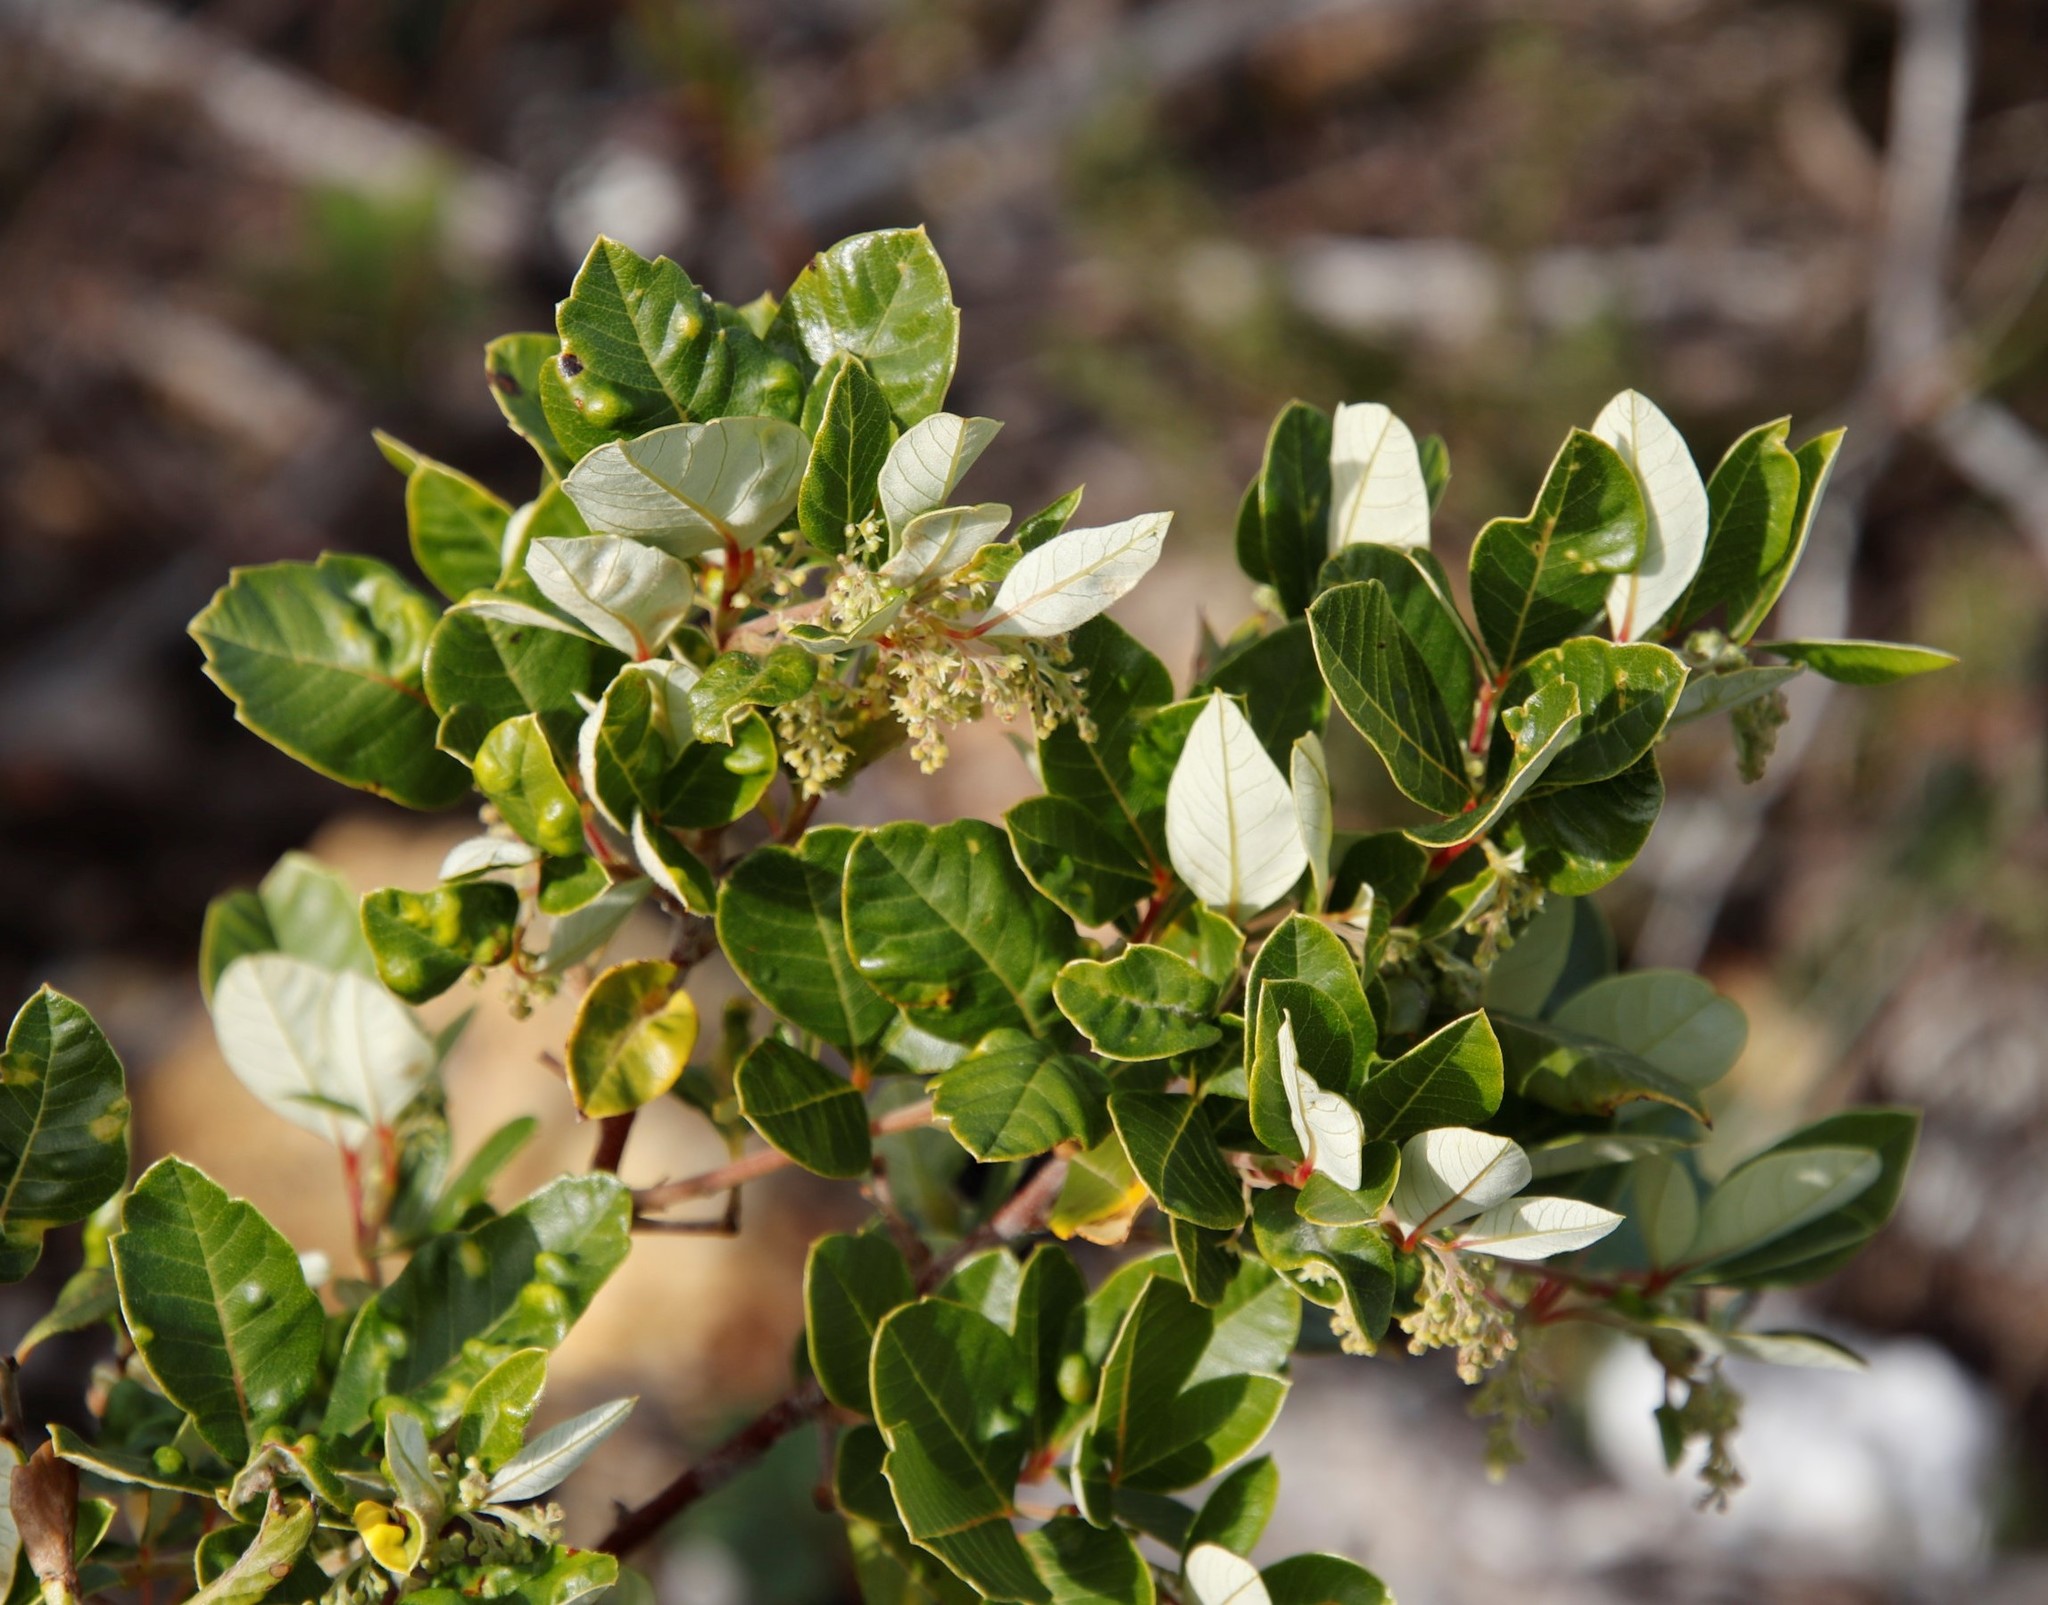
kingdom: Plantae
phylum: Tracheophyta
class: Magnoliopsida
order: Sapindales
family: Anacardiaceae
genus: Searsia
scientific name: Searsia tomentosa
